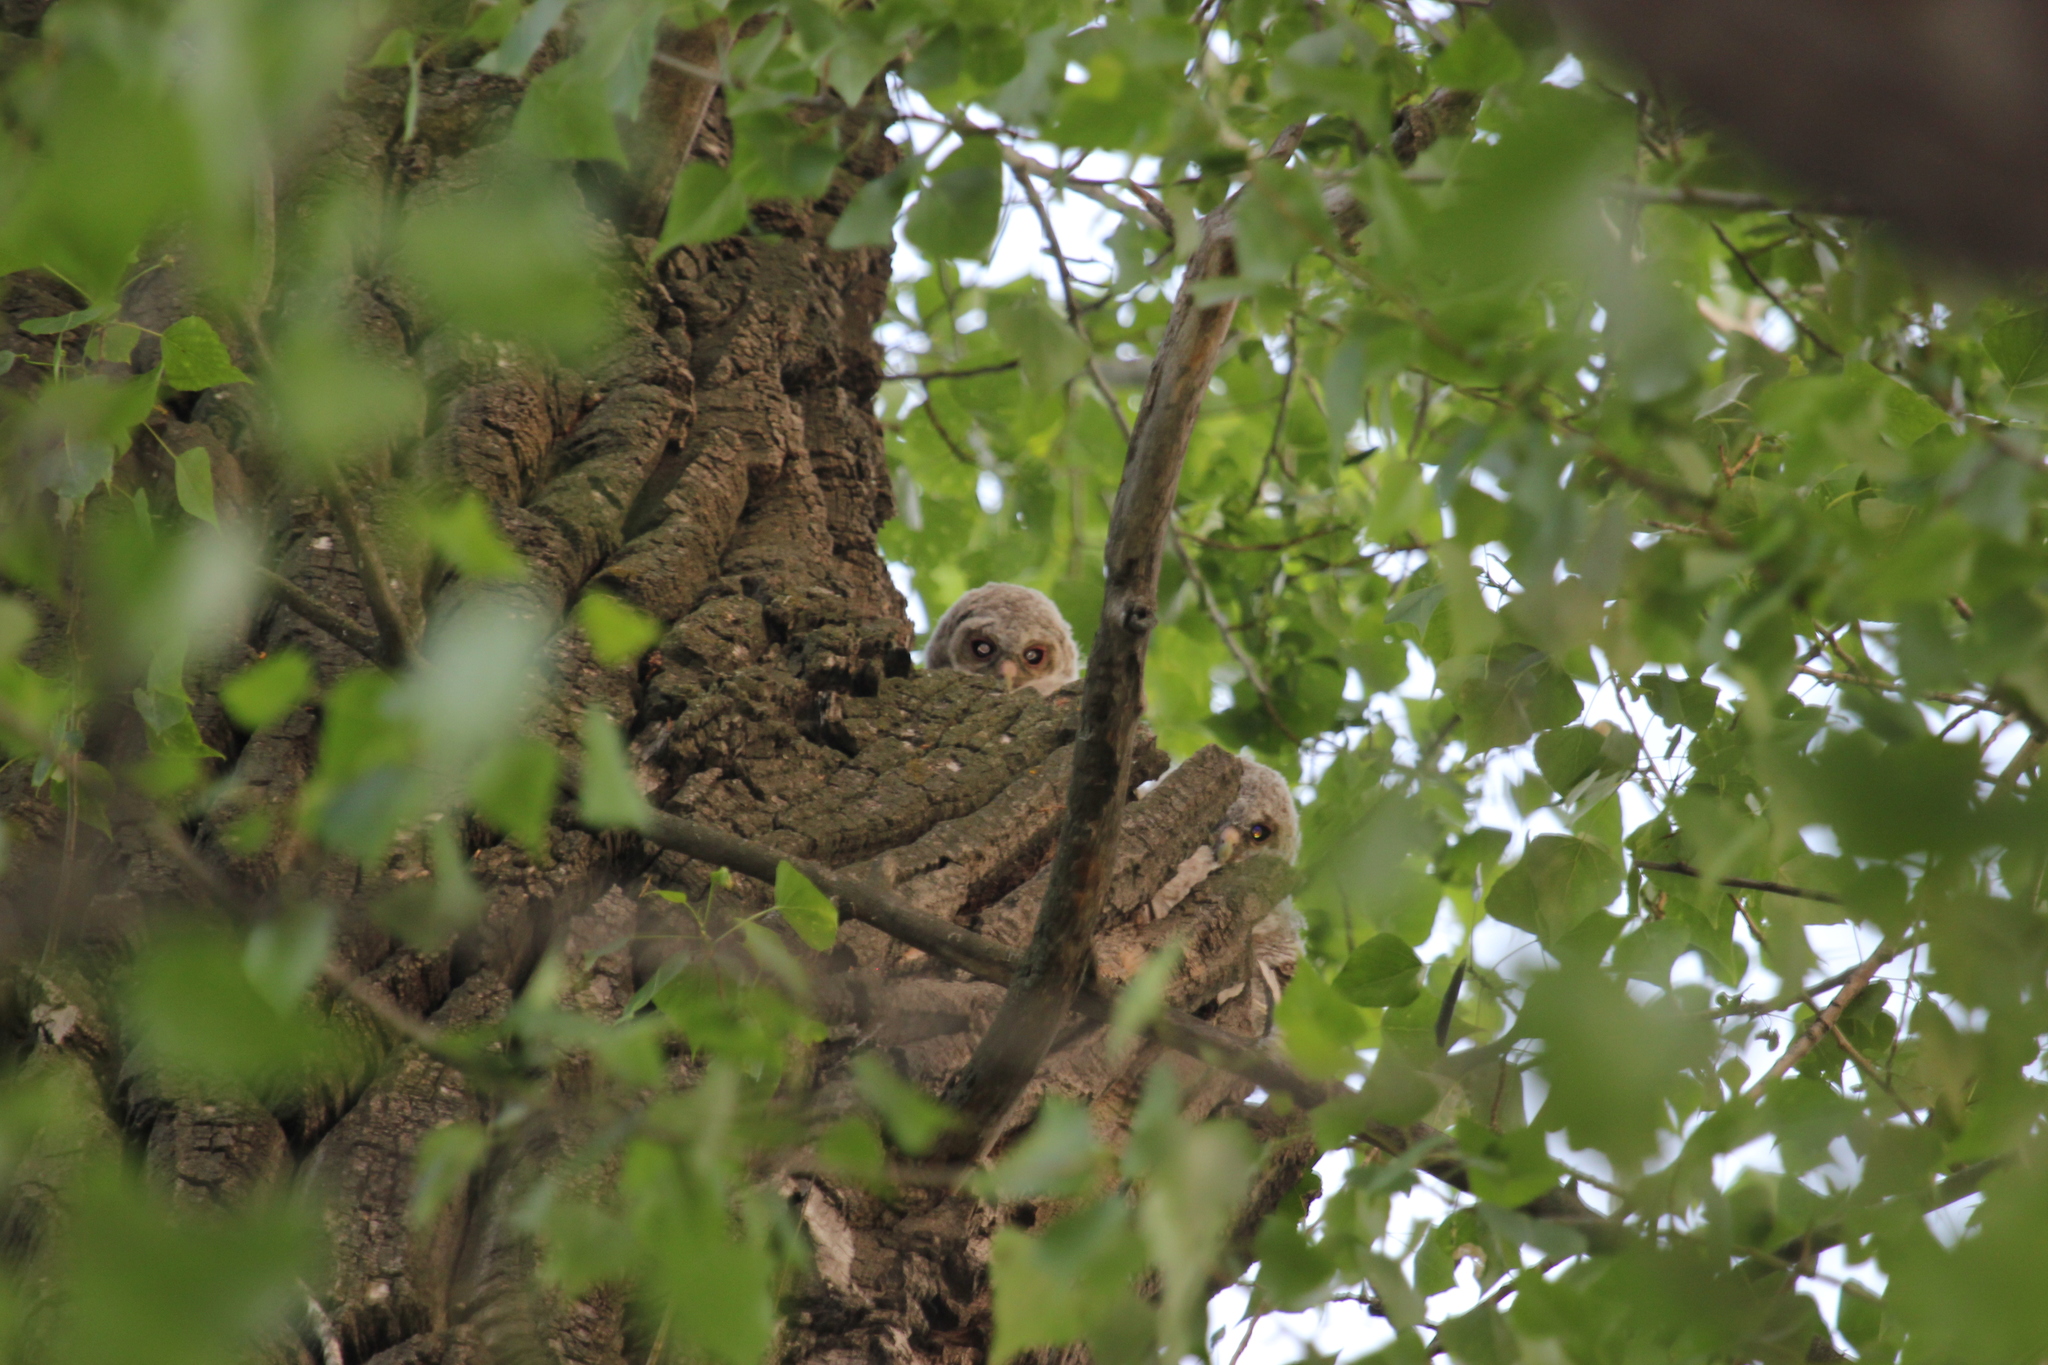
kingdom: Animalia
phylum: Chordata
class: Aves
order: Strigiformes
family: Strigidae
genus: Strix
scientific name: Strix aluco
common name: Tawny owl
